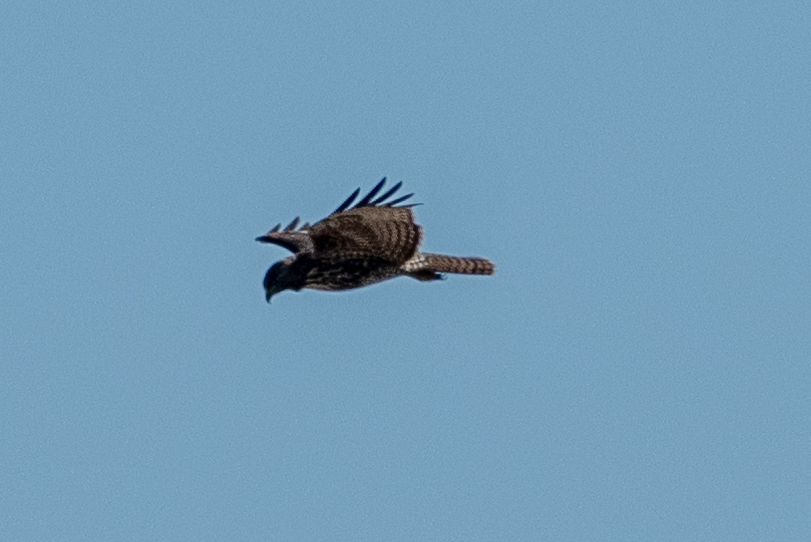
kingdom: Animalia
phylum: Chordata
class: Aves
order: Accipitriformes
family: Accipitridae
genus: Buteo
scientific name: Buteo jamaicensis
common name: Red-tailed hawk
